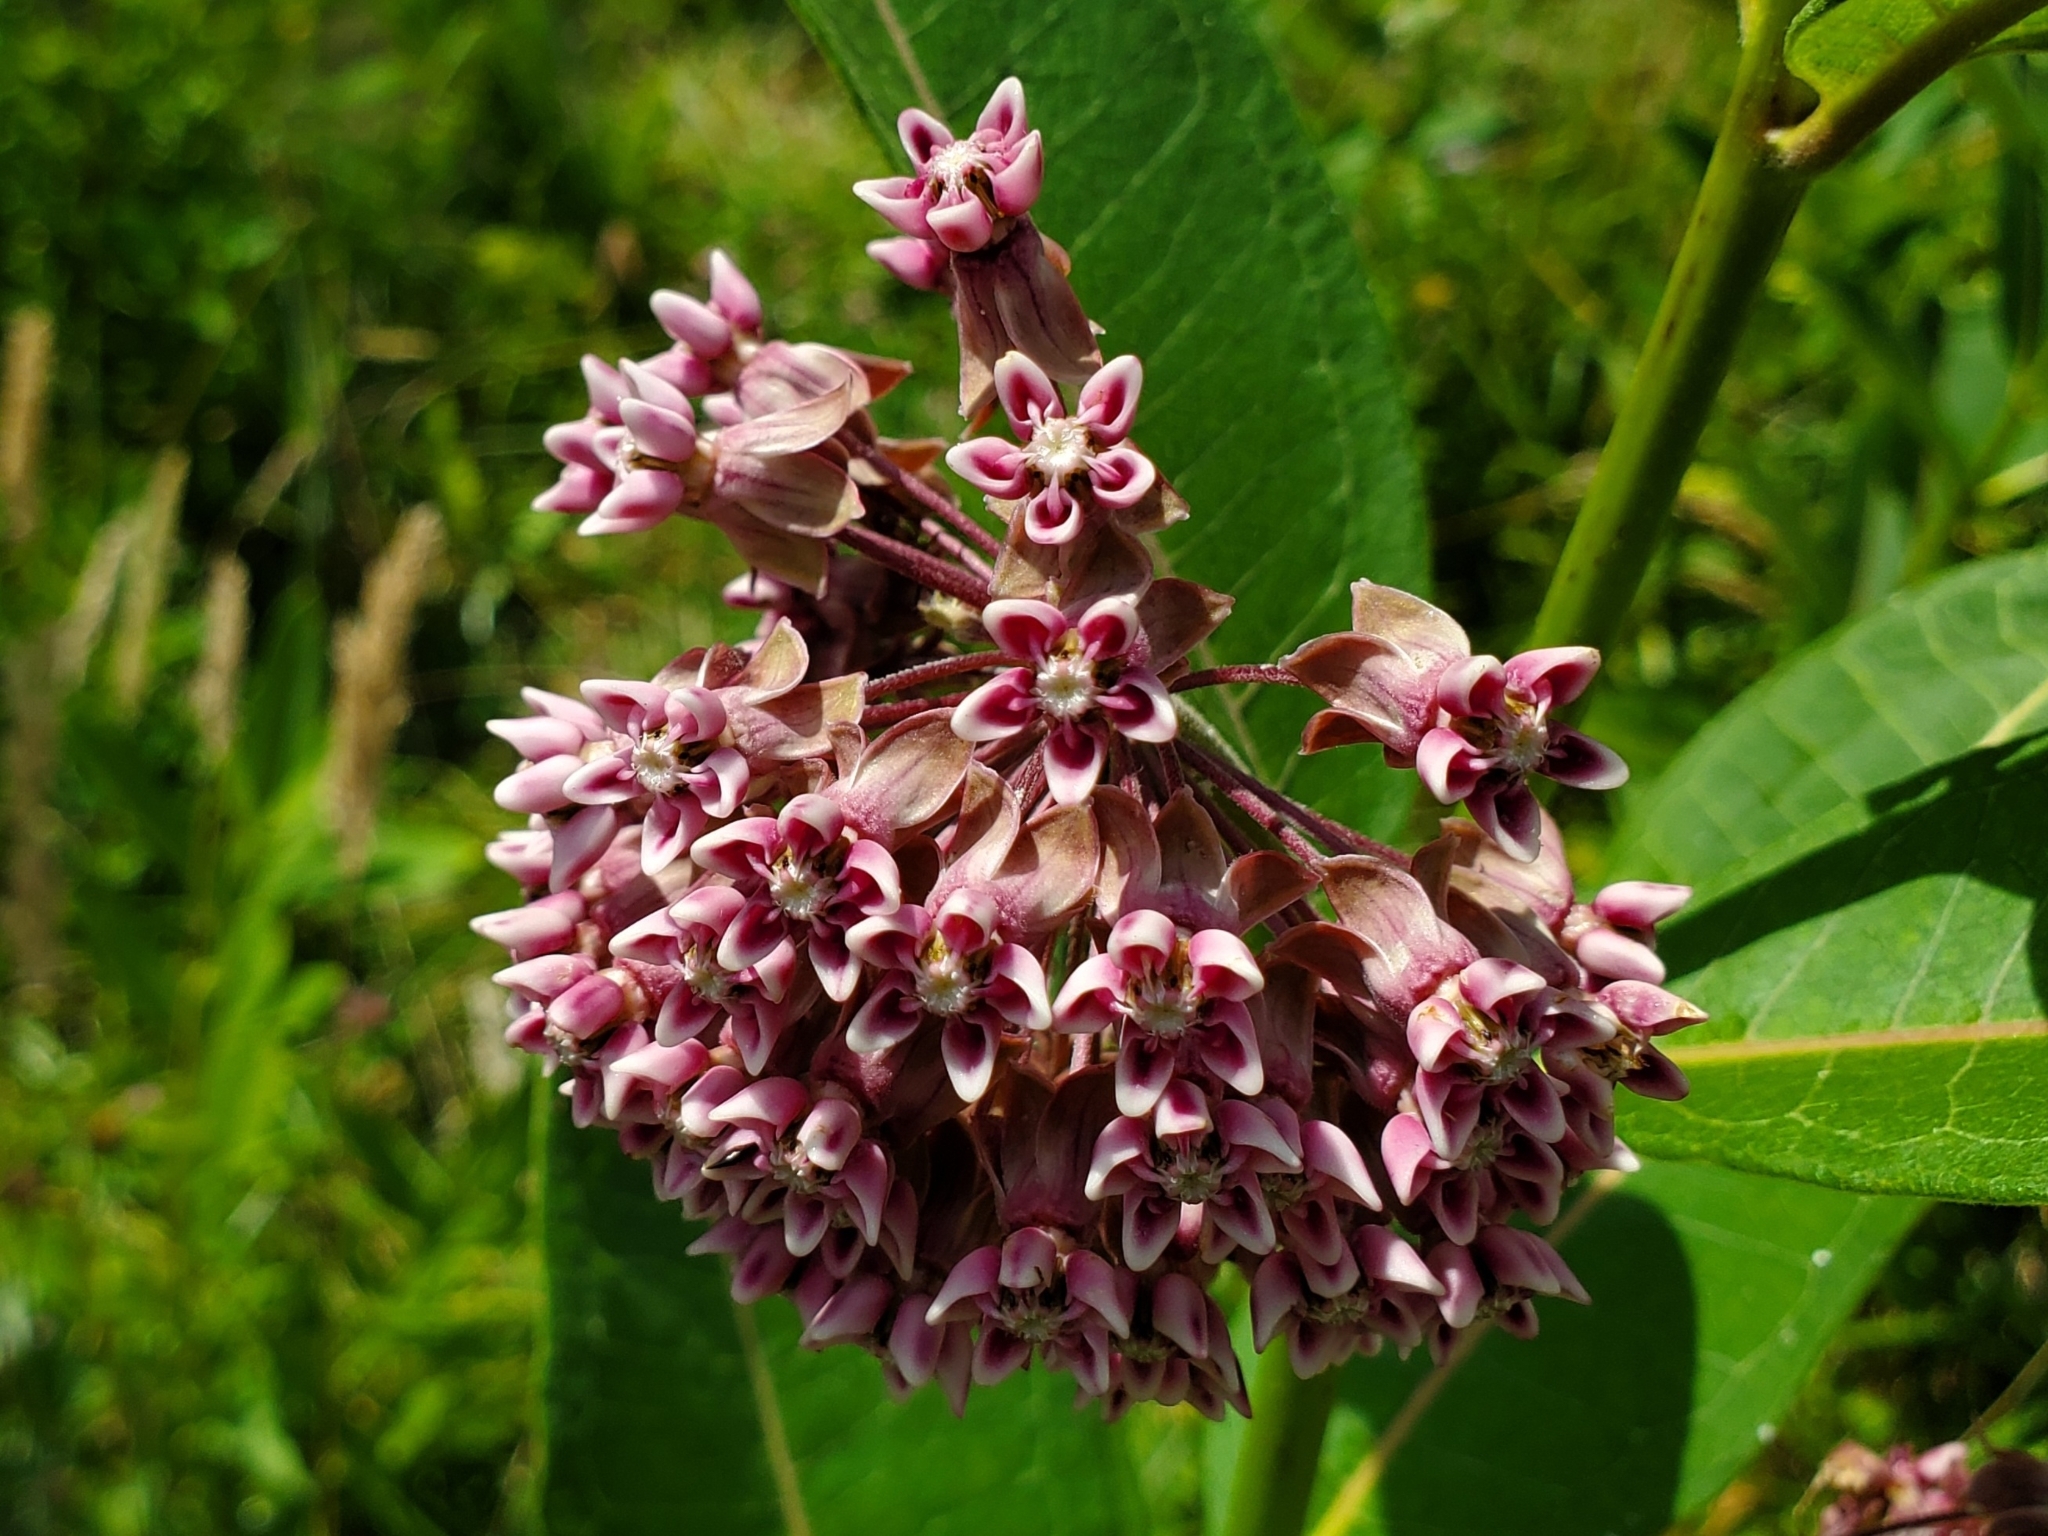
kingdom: Plantae
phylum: Tracheophyta
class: Magnoliopsida
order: Gentianales
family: Apocynaceae
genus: Asclepias
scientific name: Asclepias syriaca
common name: Common milkweed
